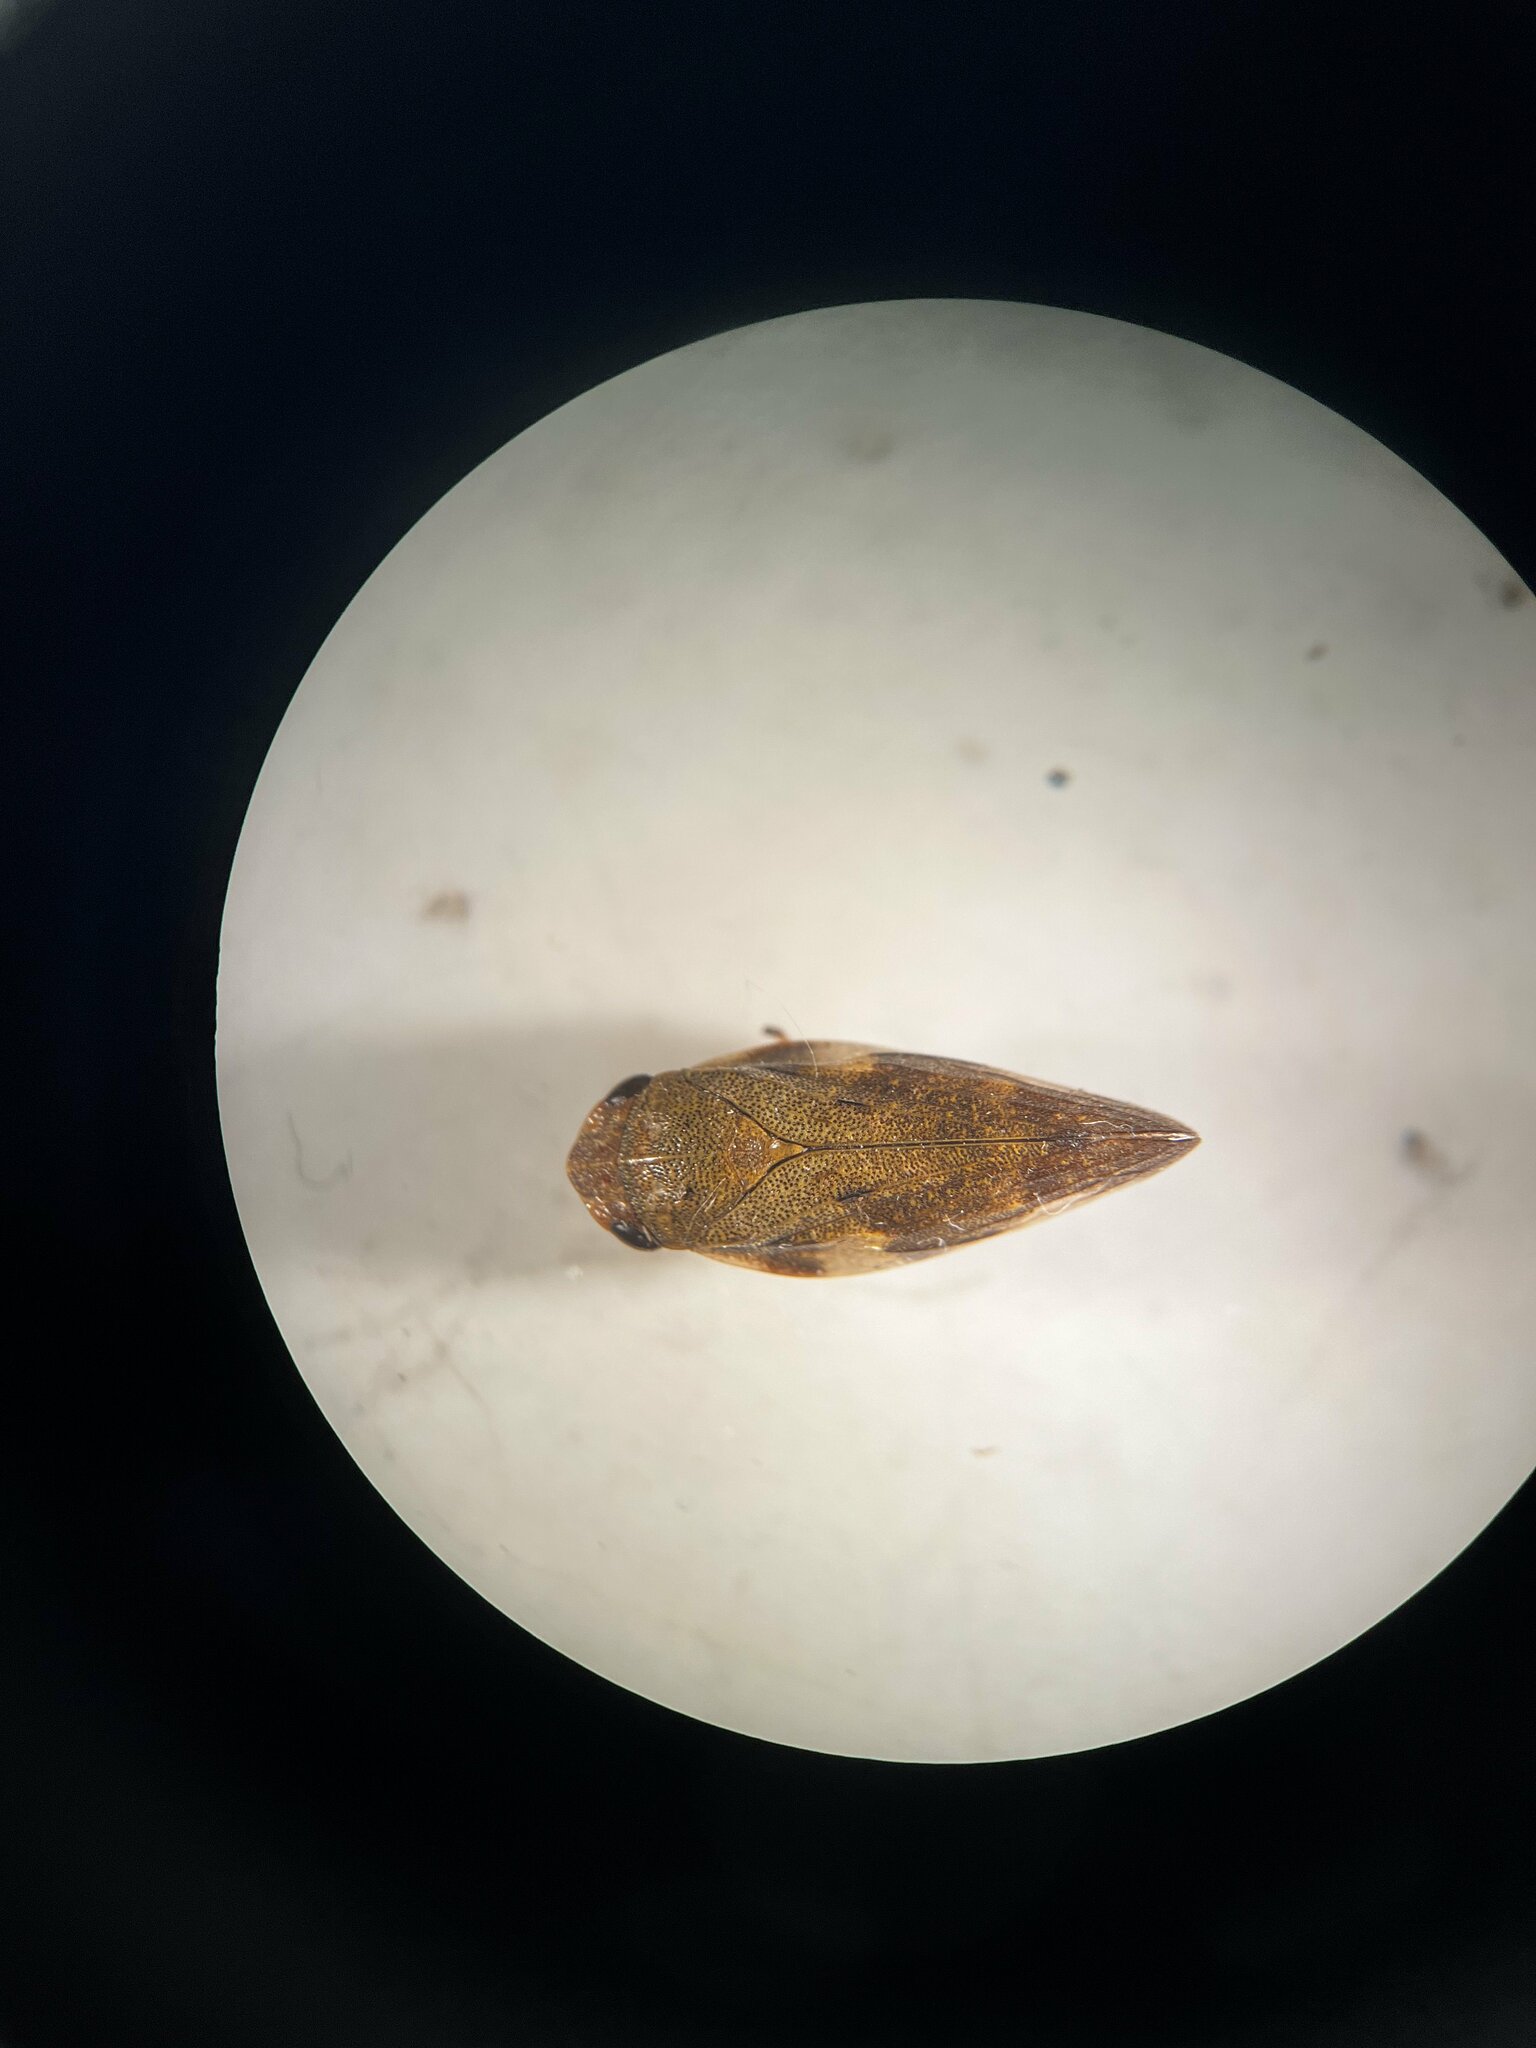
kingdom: Animalia
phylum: Arthropoda
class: Insecta
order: Hemiptera
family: Aphrophoridae
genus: Aphrophora
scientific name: Aphrophora alni
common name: European alder spittlebug
